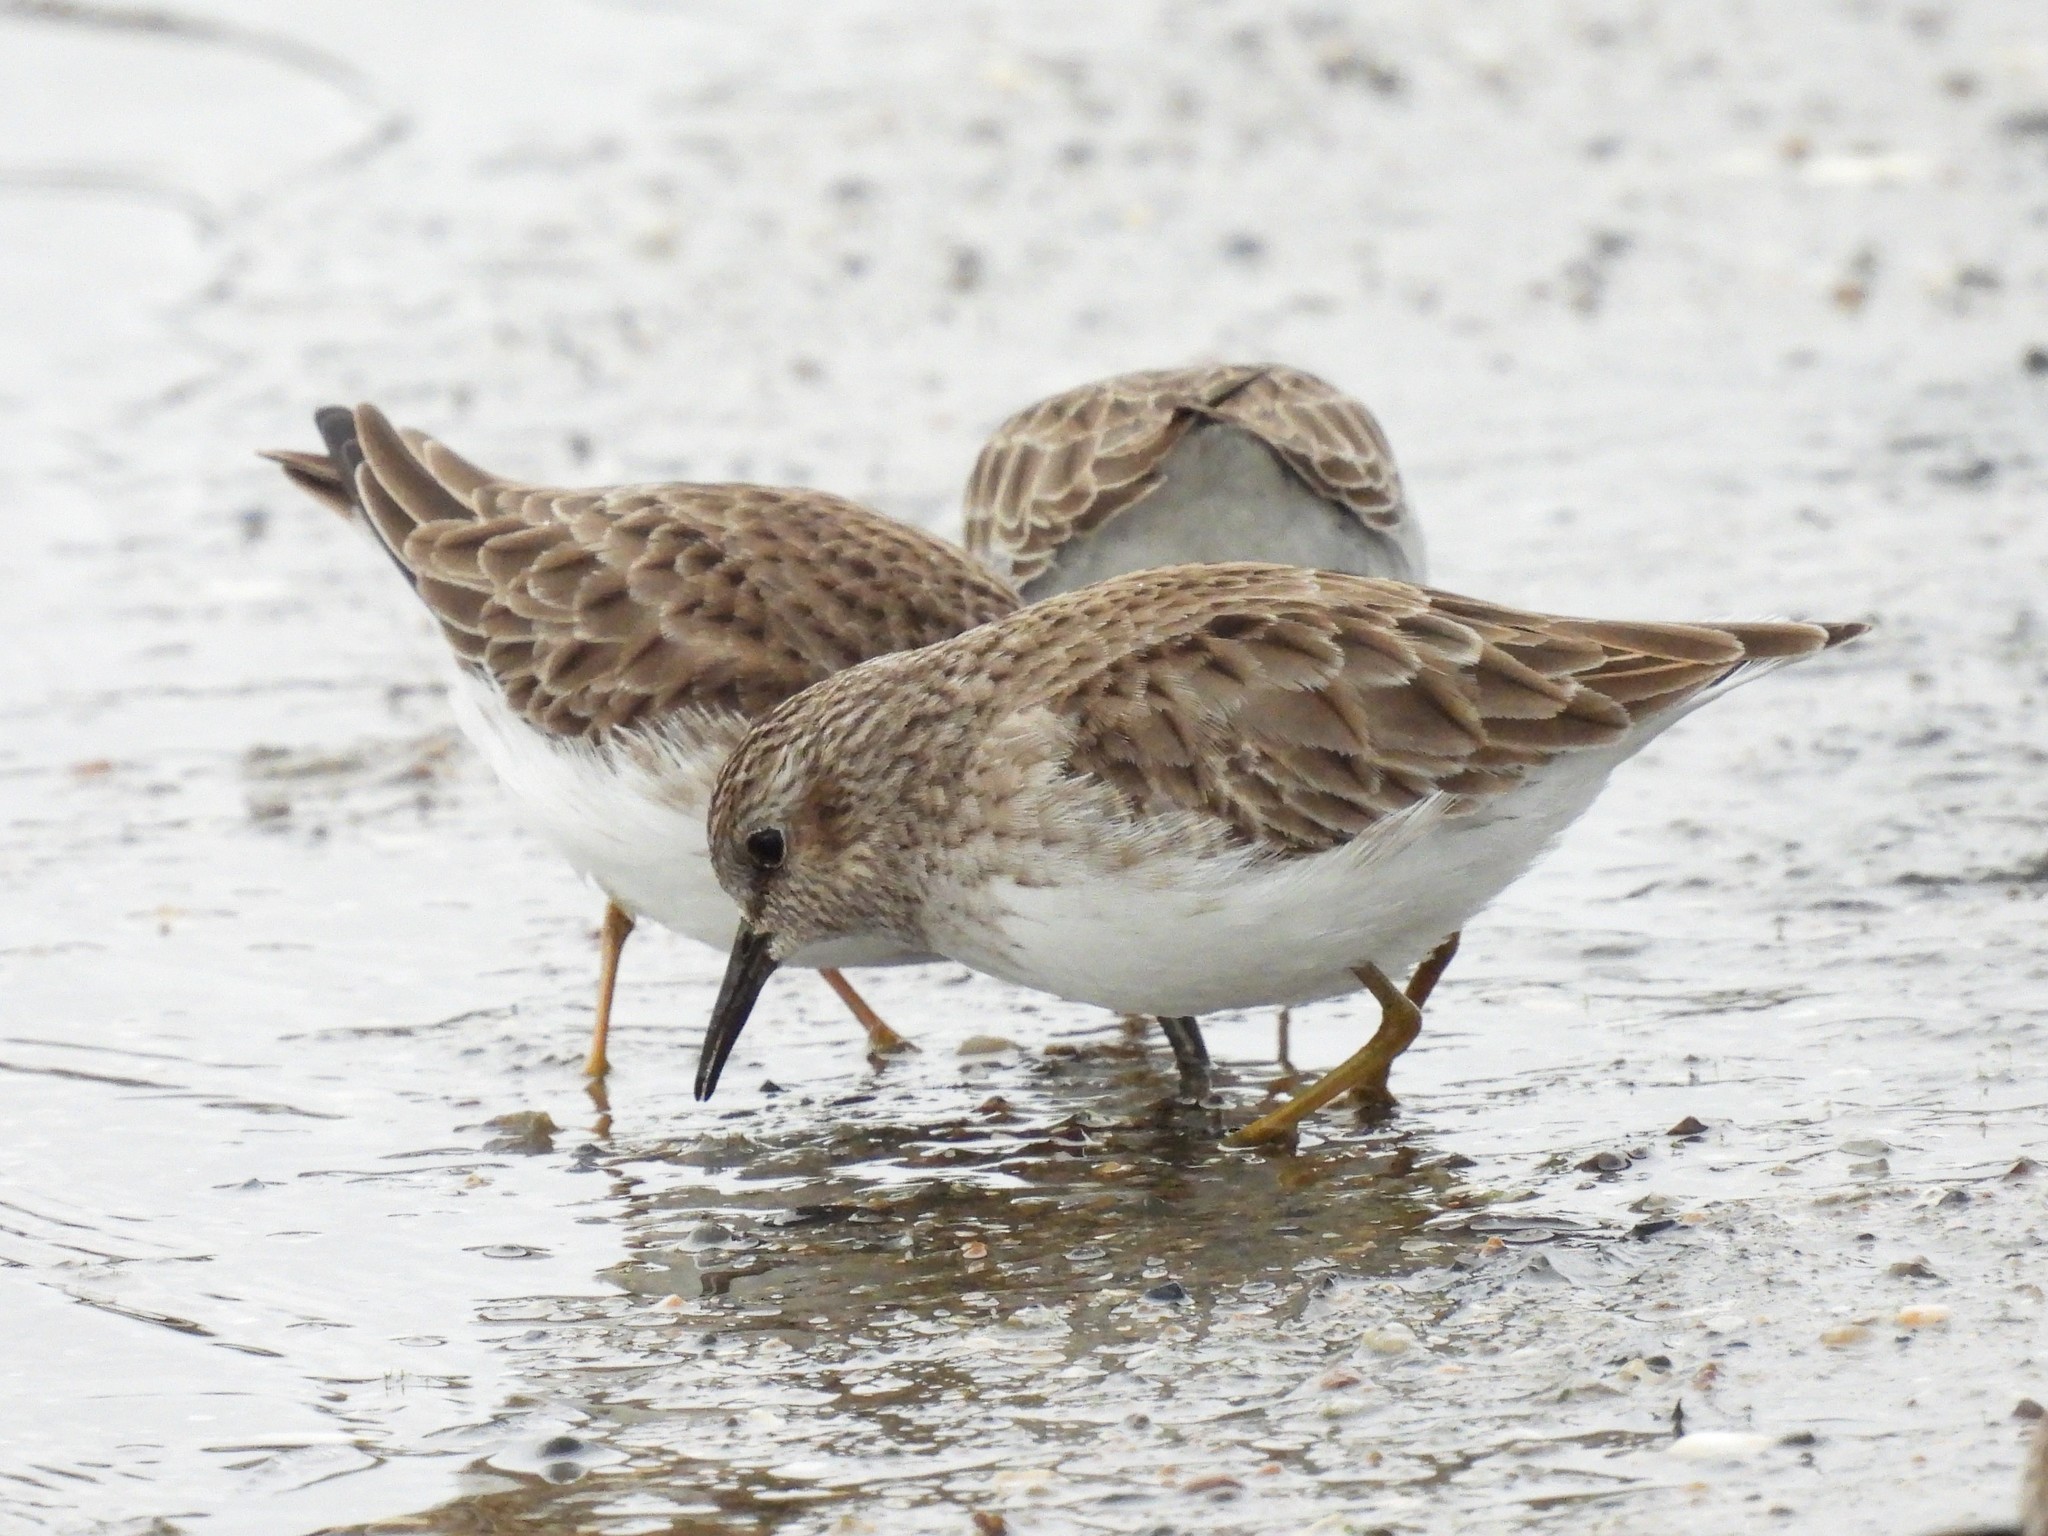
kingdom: Animalia
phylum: Chordata
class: Aves
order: Charadriiformes
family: Scolopacidae
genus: Calidris
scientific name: Calidris minutilla
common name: Least sandpiper
